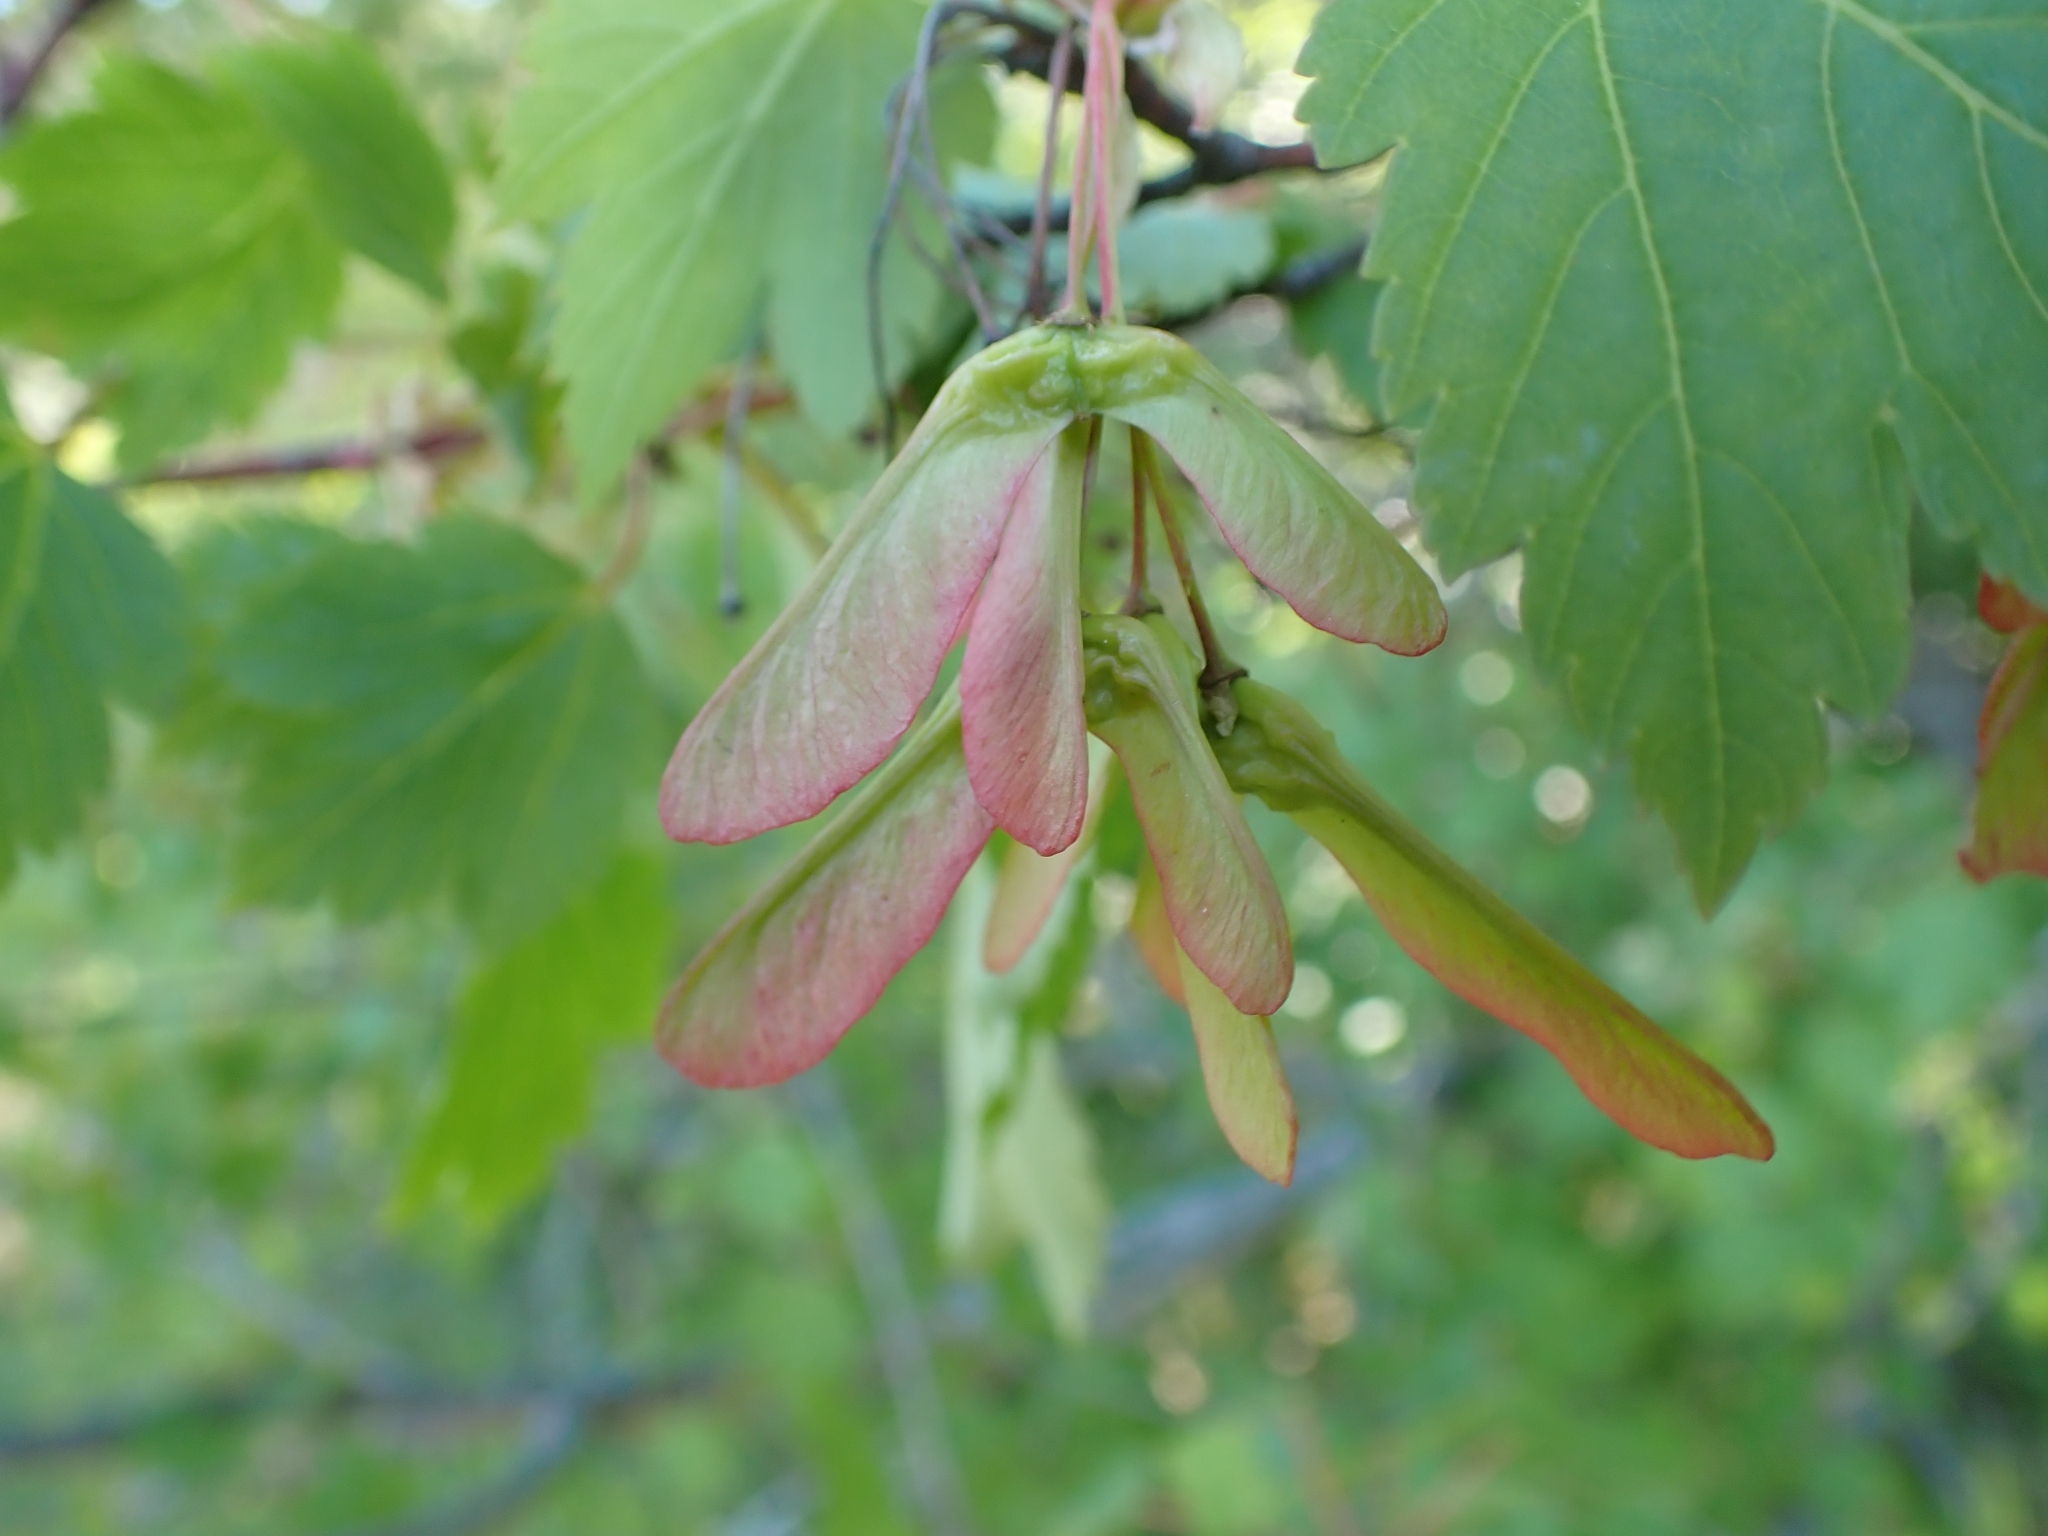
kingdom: Plantae
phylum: Tracheophyta
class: Magnoliopsida
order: Sapindales
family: Sapindaceae
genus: Acer
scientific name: Acer glabrum
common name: Rocky mountain maple
